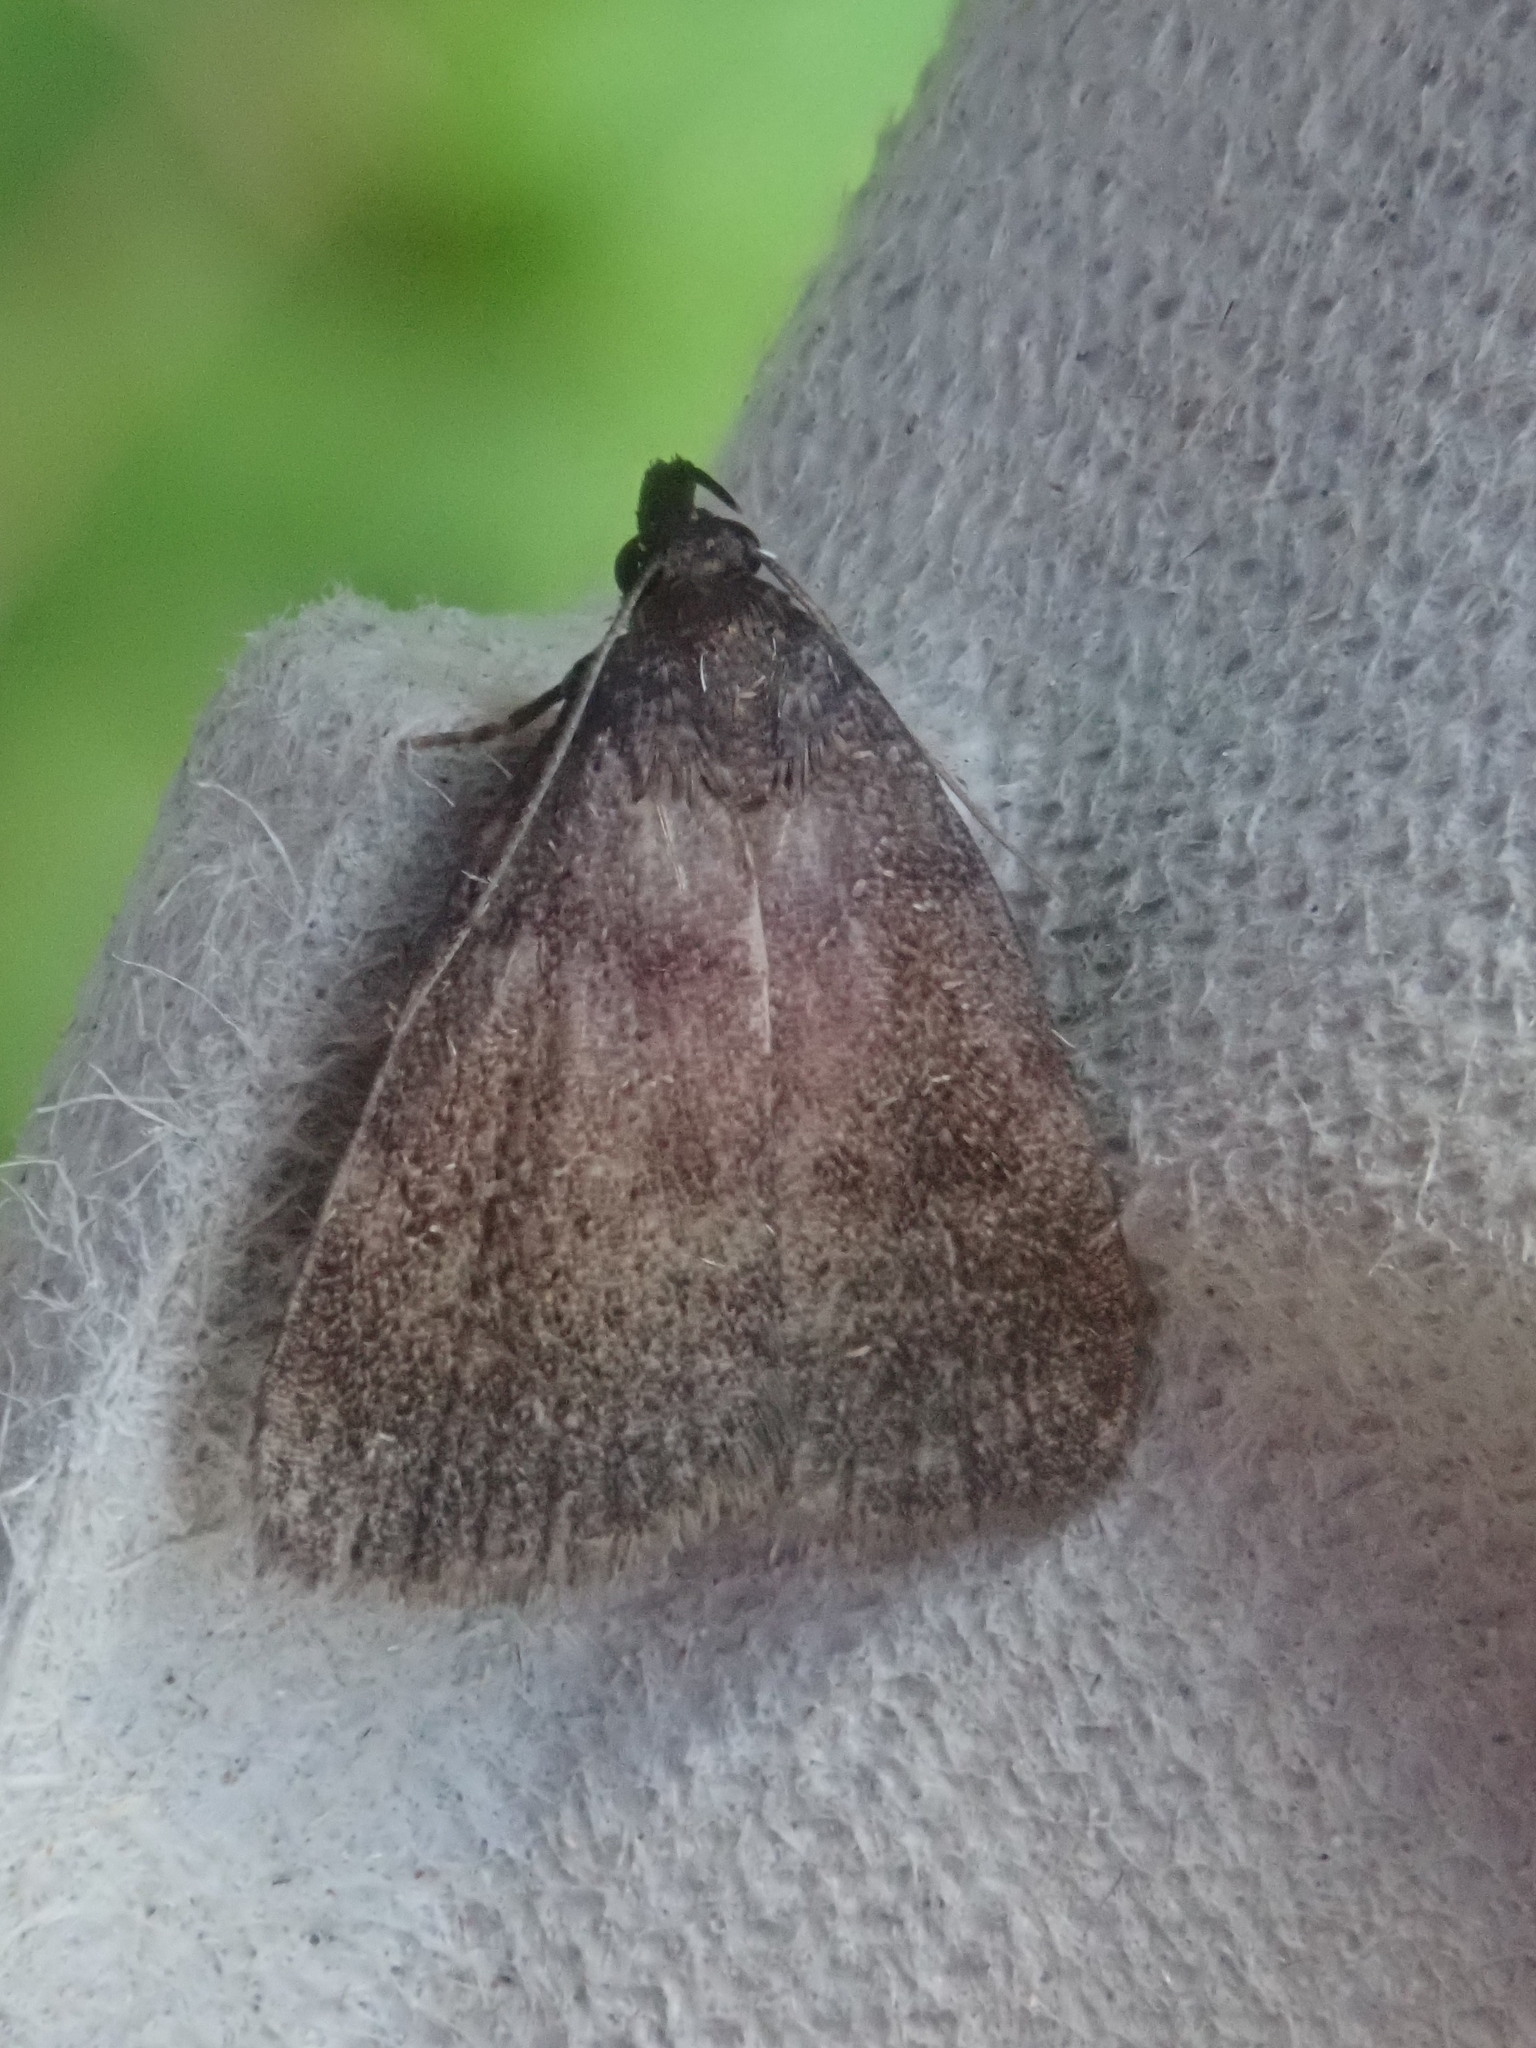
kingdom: Animalia
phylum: Arthropoda
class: Insecta
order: Lepidoptera
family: Erebidae
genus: Idia
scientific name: Idia rotundalis
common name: Rotund idia moth
